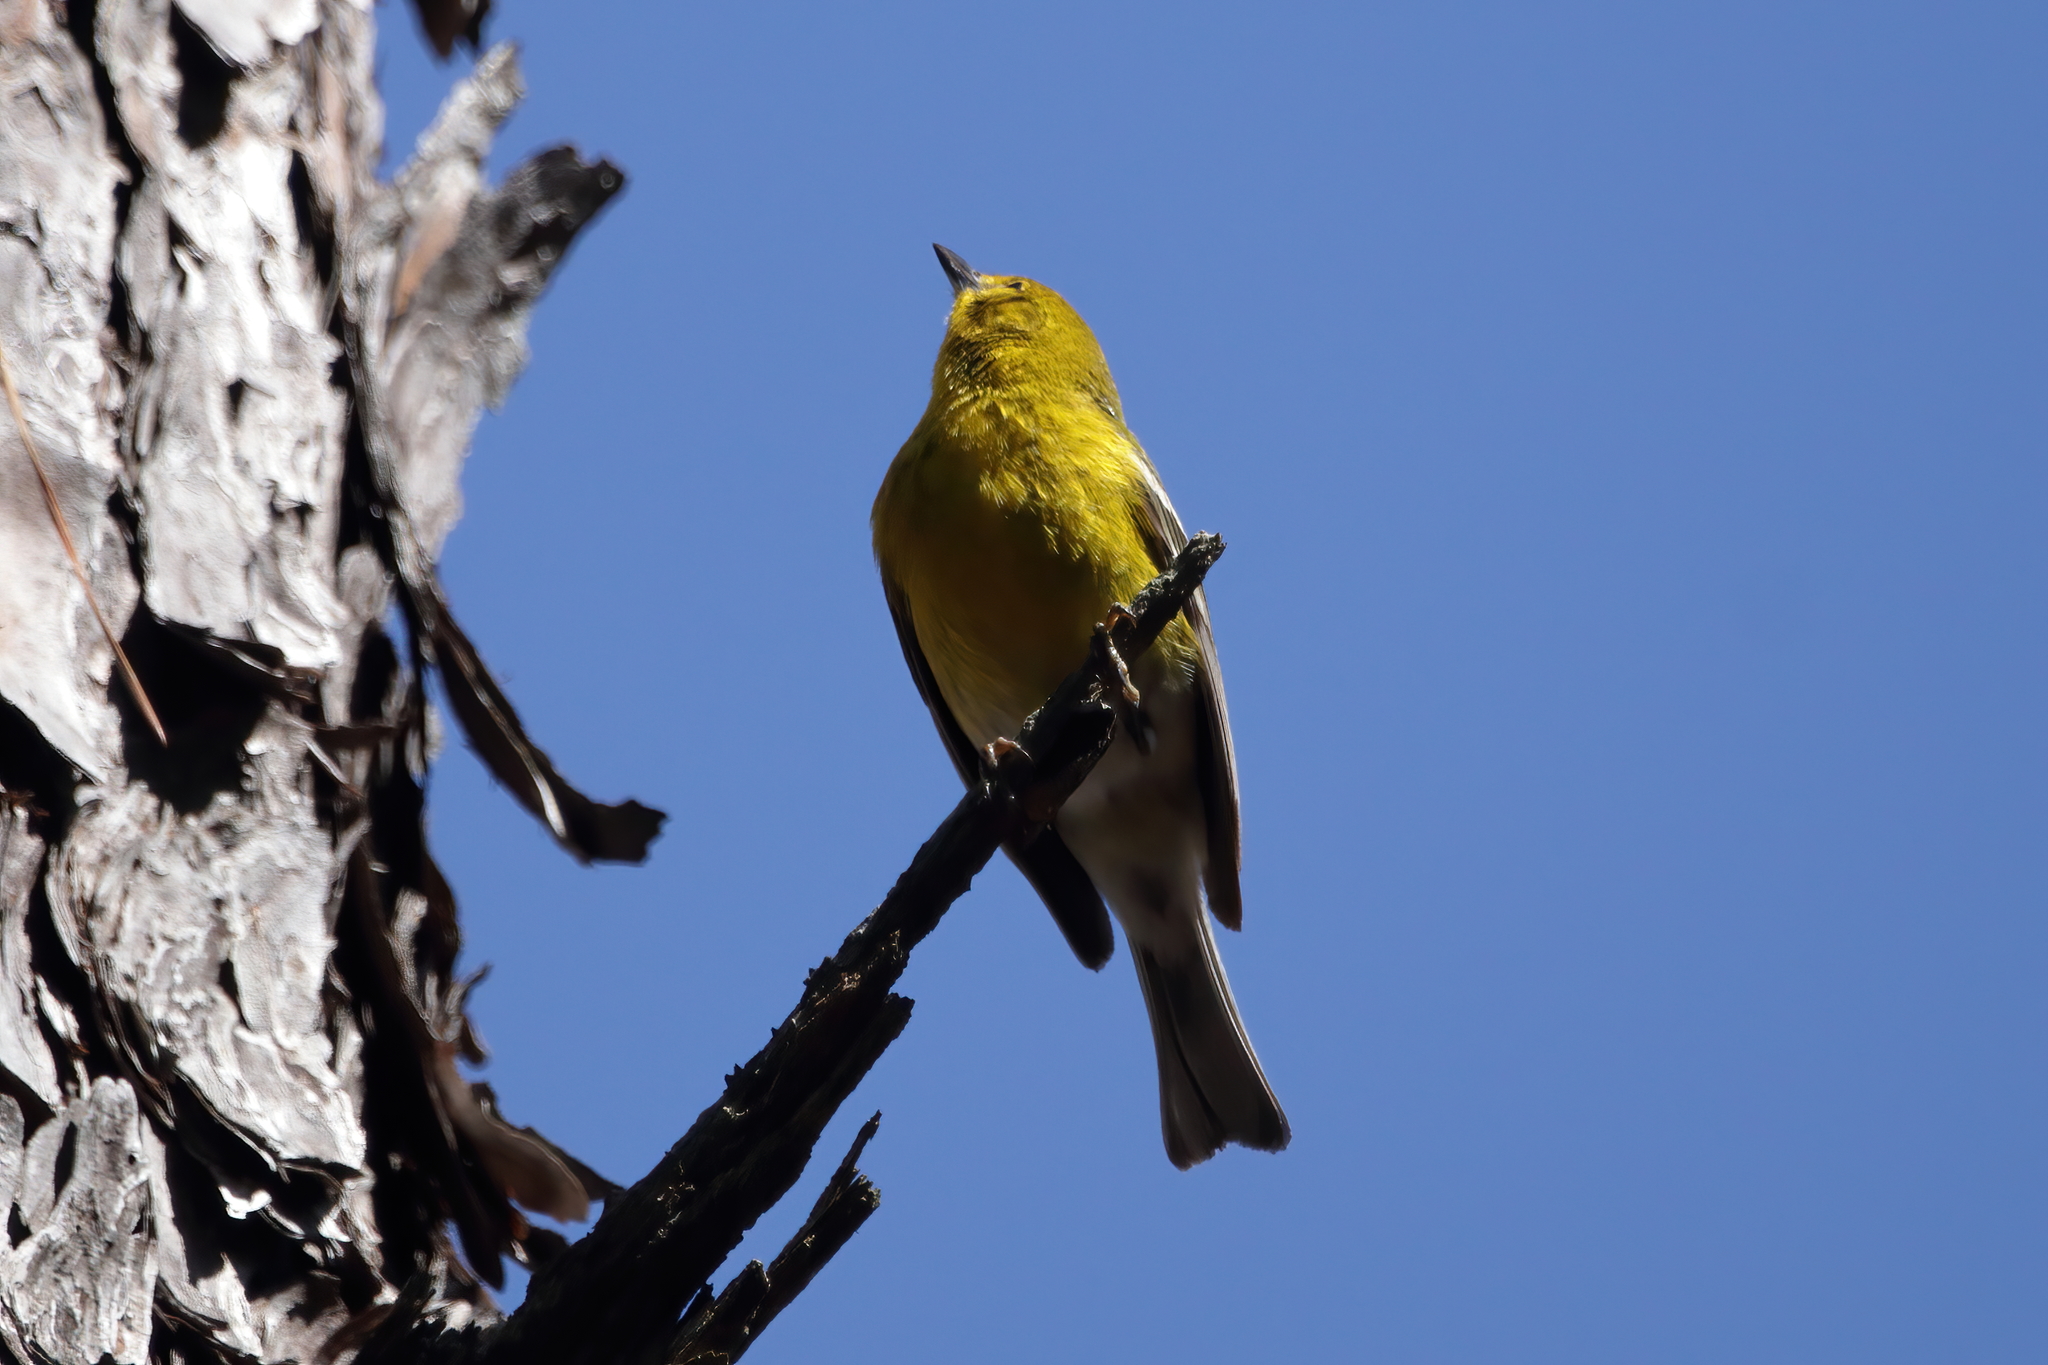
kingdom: Animalia
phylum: Chordata
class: Aves
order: Passeriformes
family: Parulidae
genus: Setophaga
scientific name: Setophaga pinus
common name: Pine warbler
